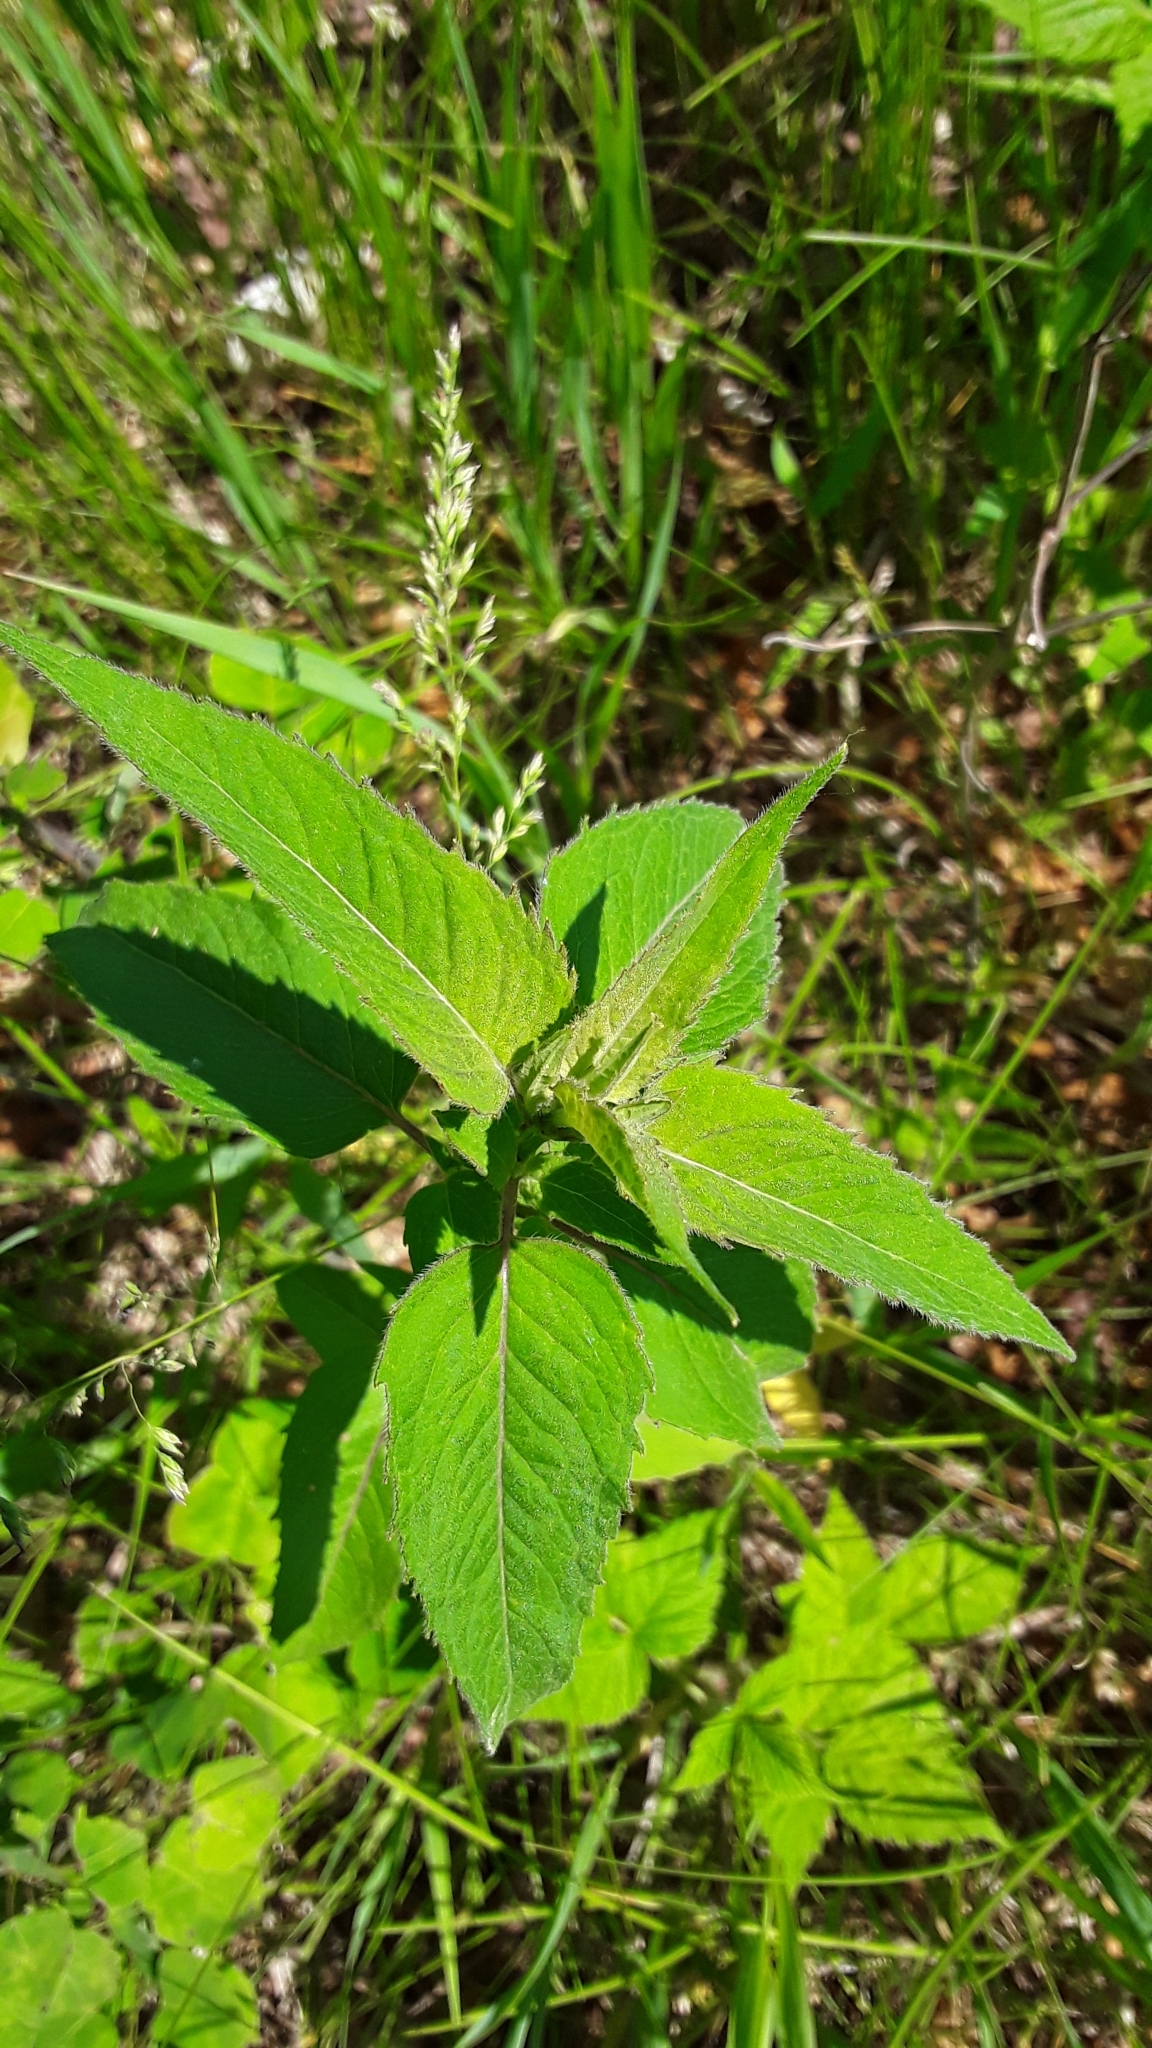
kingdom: Plantae
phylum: Tracheophyta
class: Magnoliopsida
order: Lamiales
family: Lamiaceae
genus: Monarda
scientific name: Monarda
